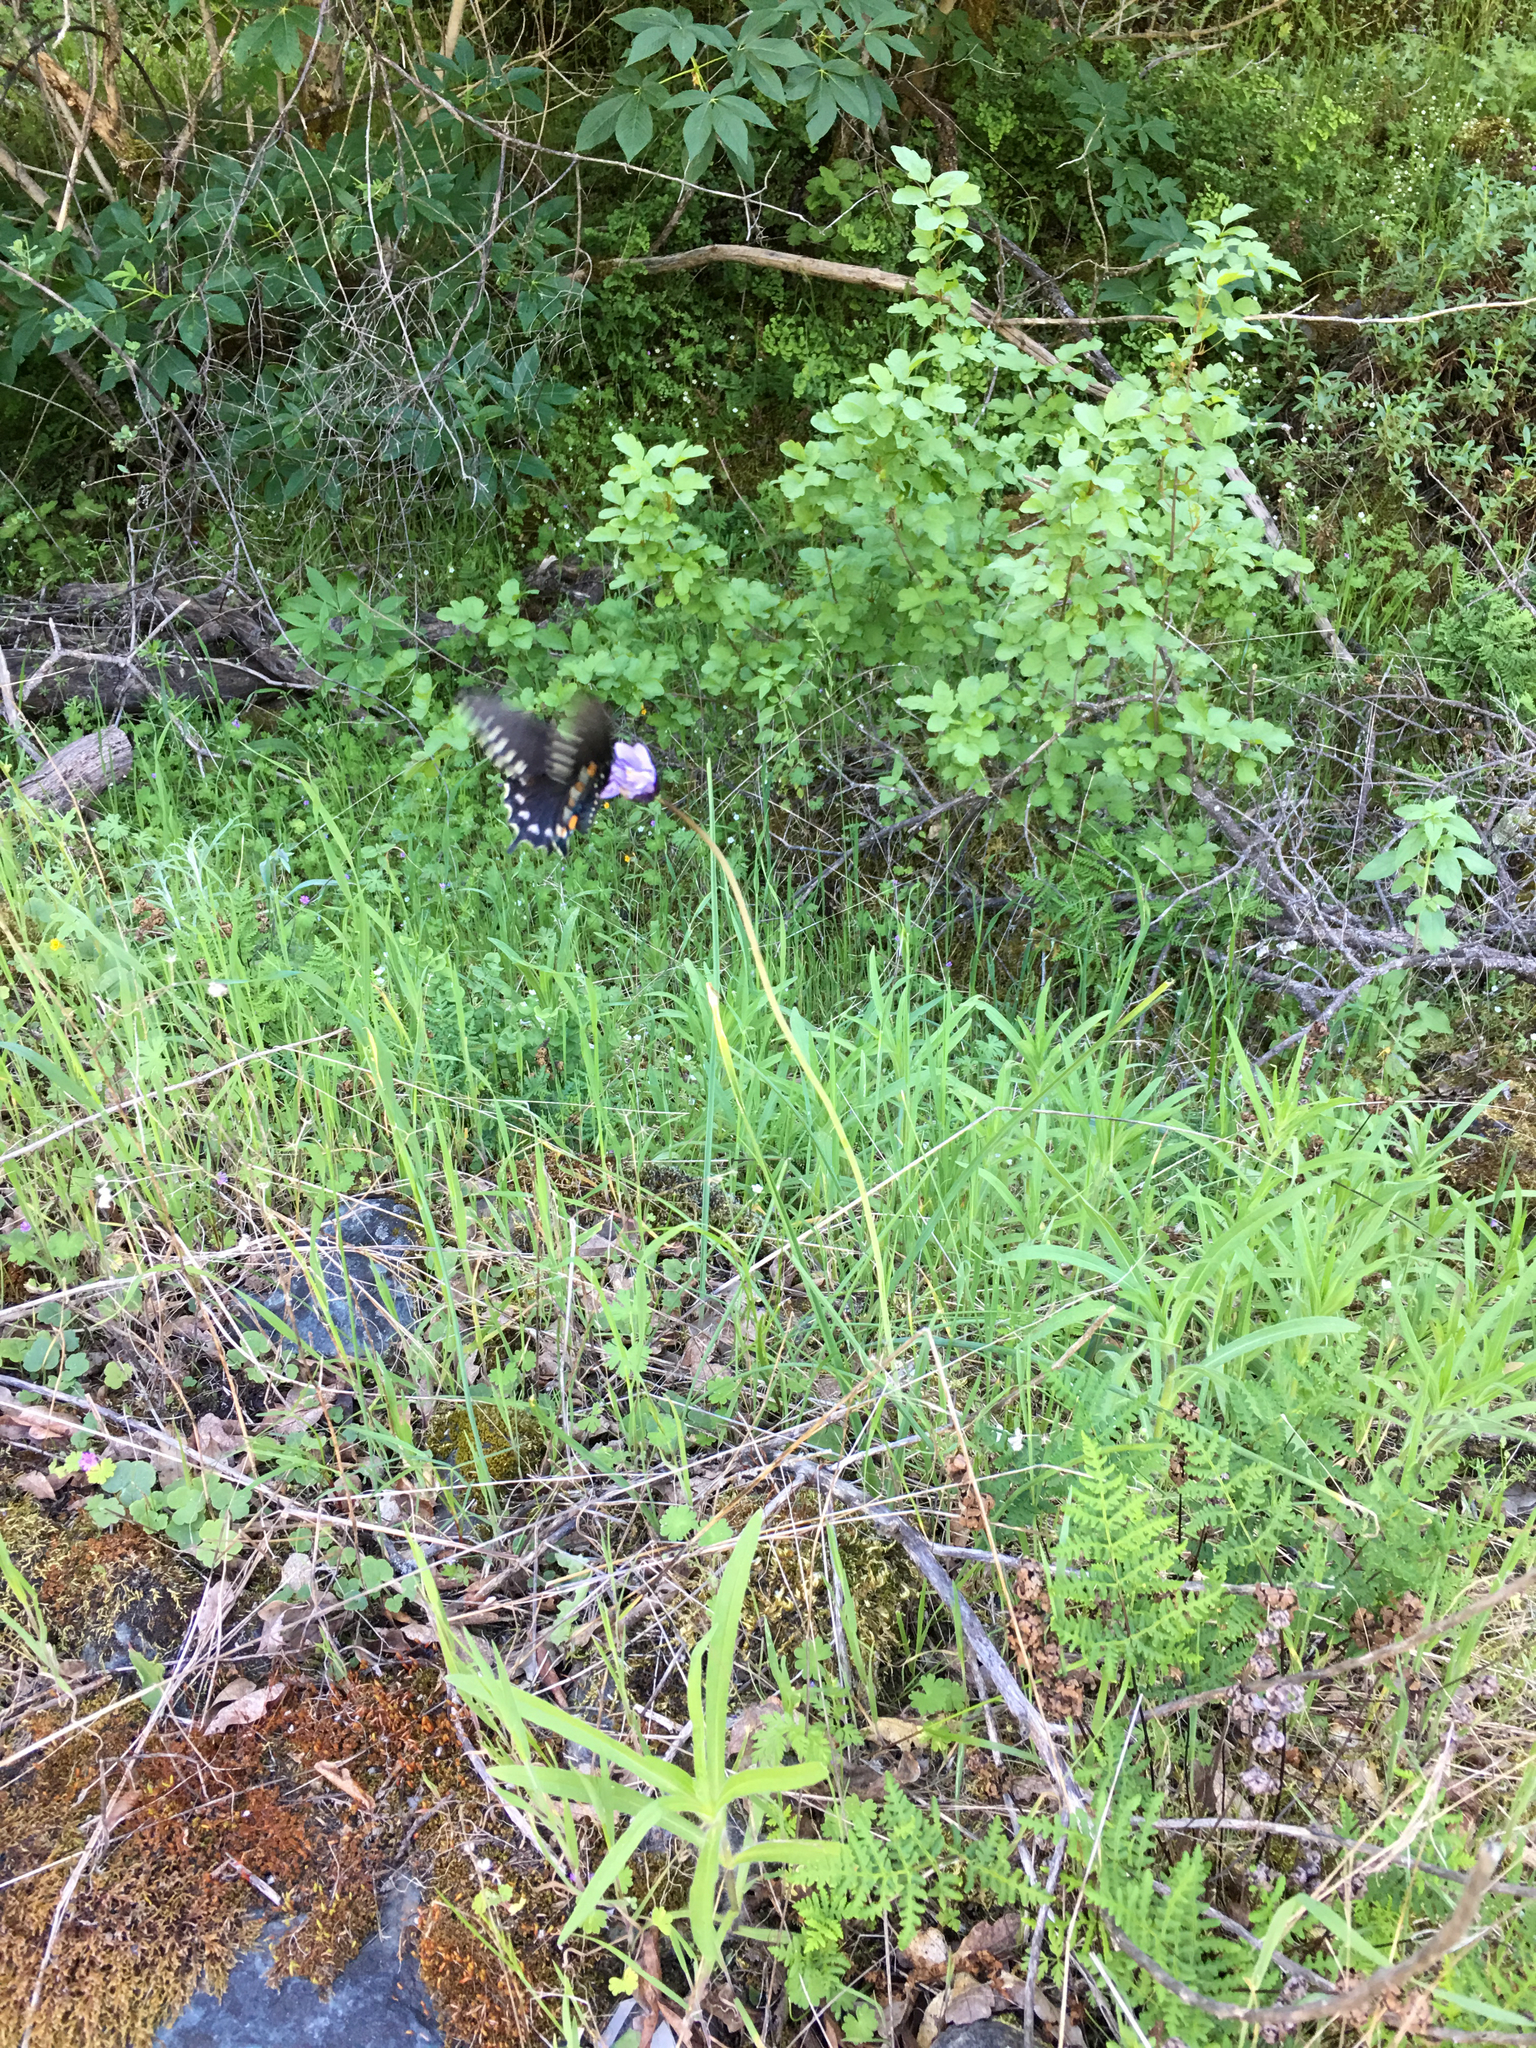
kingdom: Animalia
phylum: Arthropoda
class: Insecta
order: Lepidoptera
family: Papilionidae
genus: Battus
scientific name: Battus philenor
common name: Pipevine swallowtail
